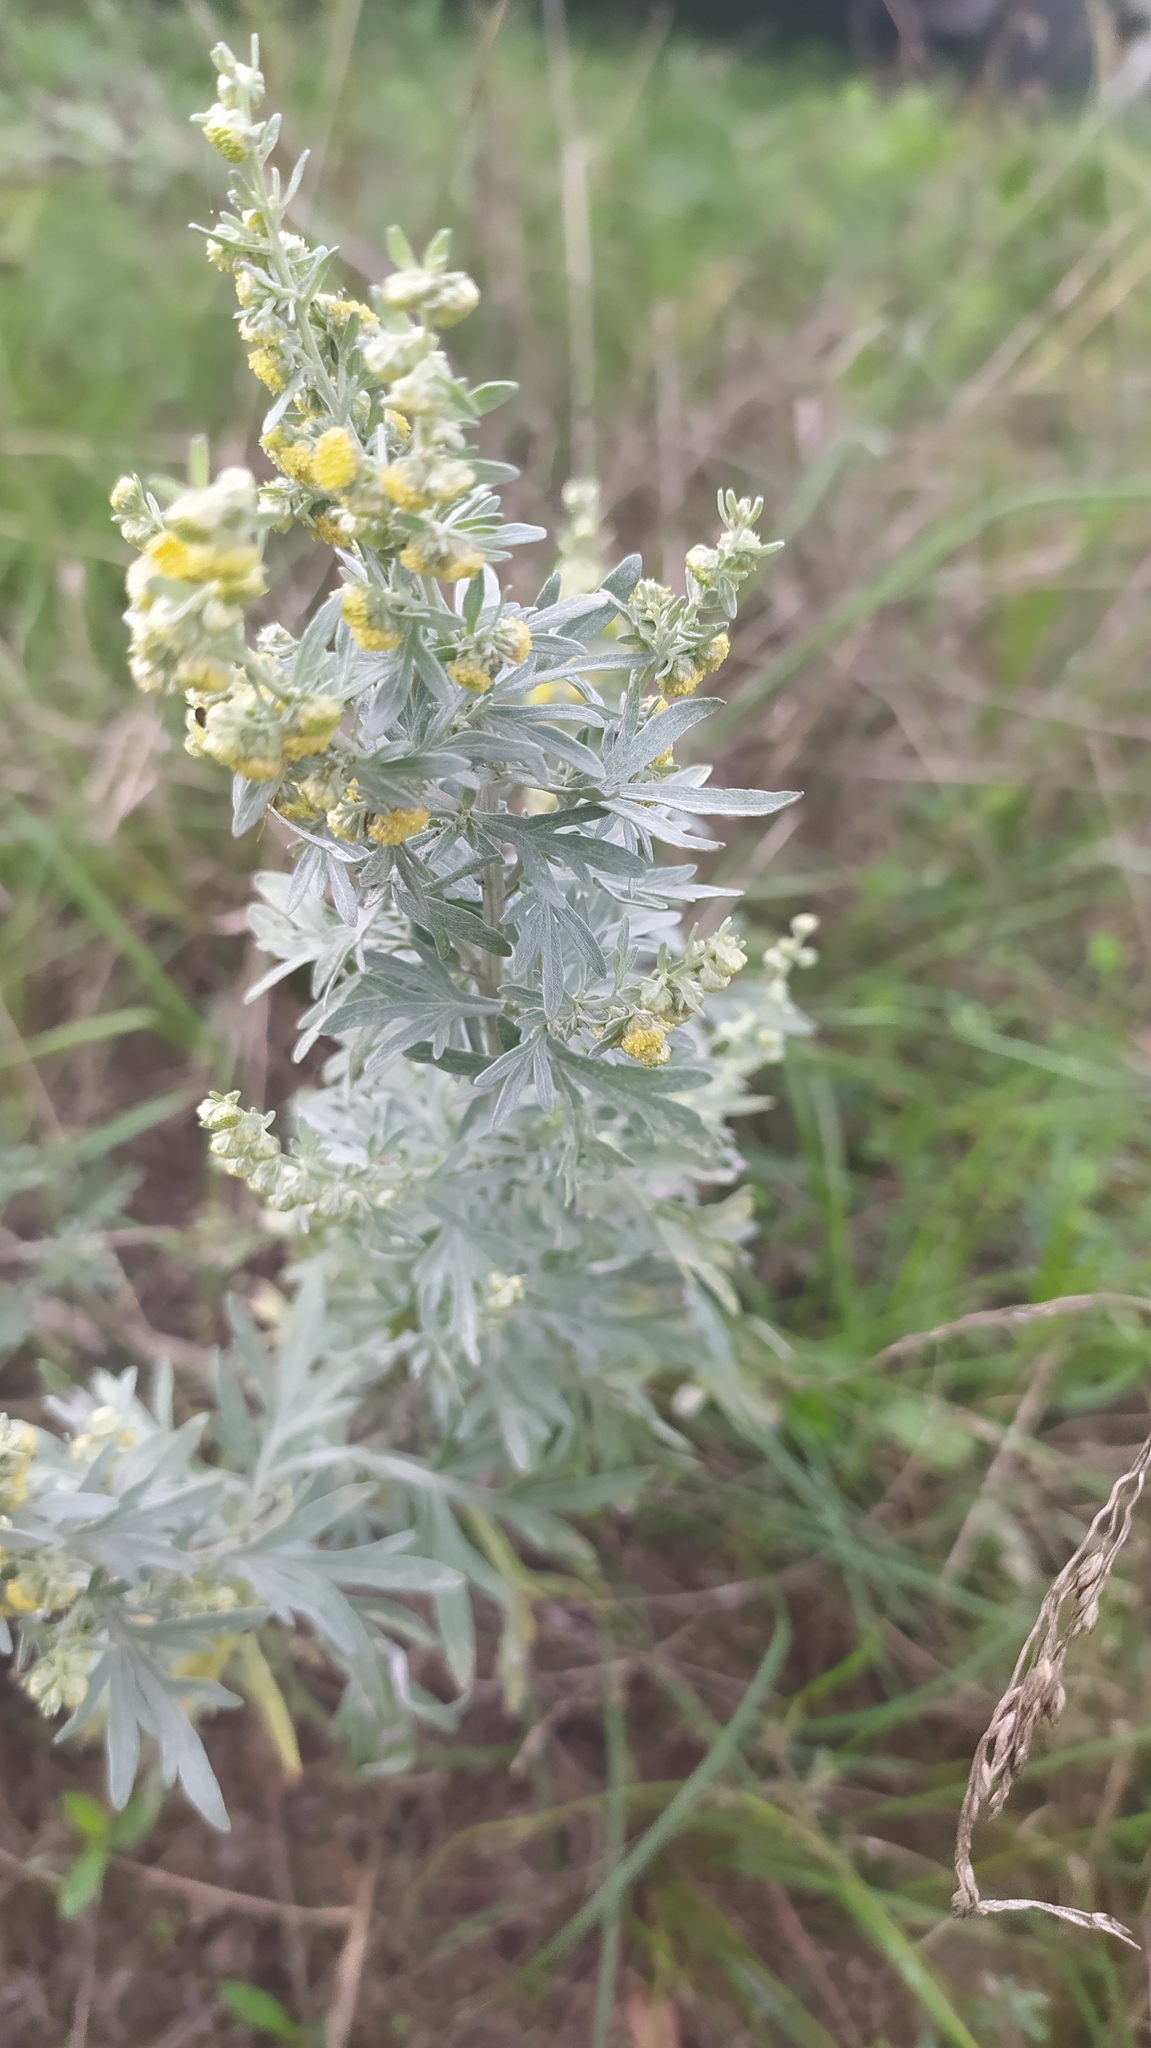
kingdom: Plantae
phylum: Tracheophyta
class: Magnoliopsida
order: Asterales
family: Asteraceae
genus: Artemisia
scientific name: Artemisia absinthium
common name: Wormwood
